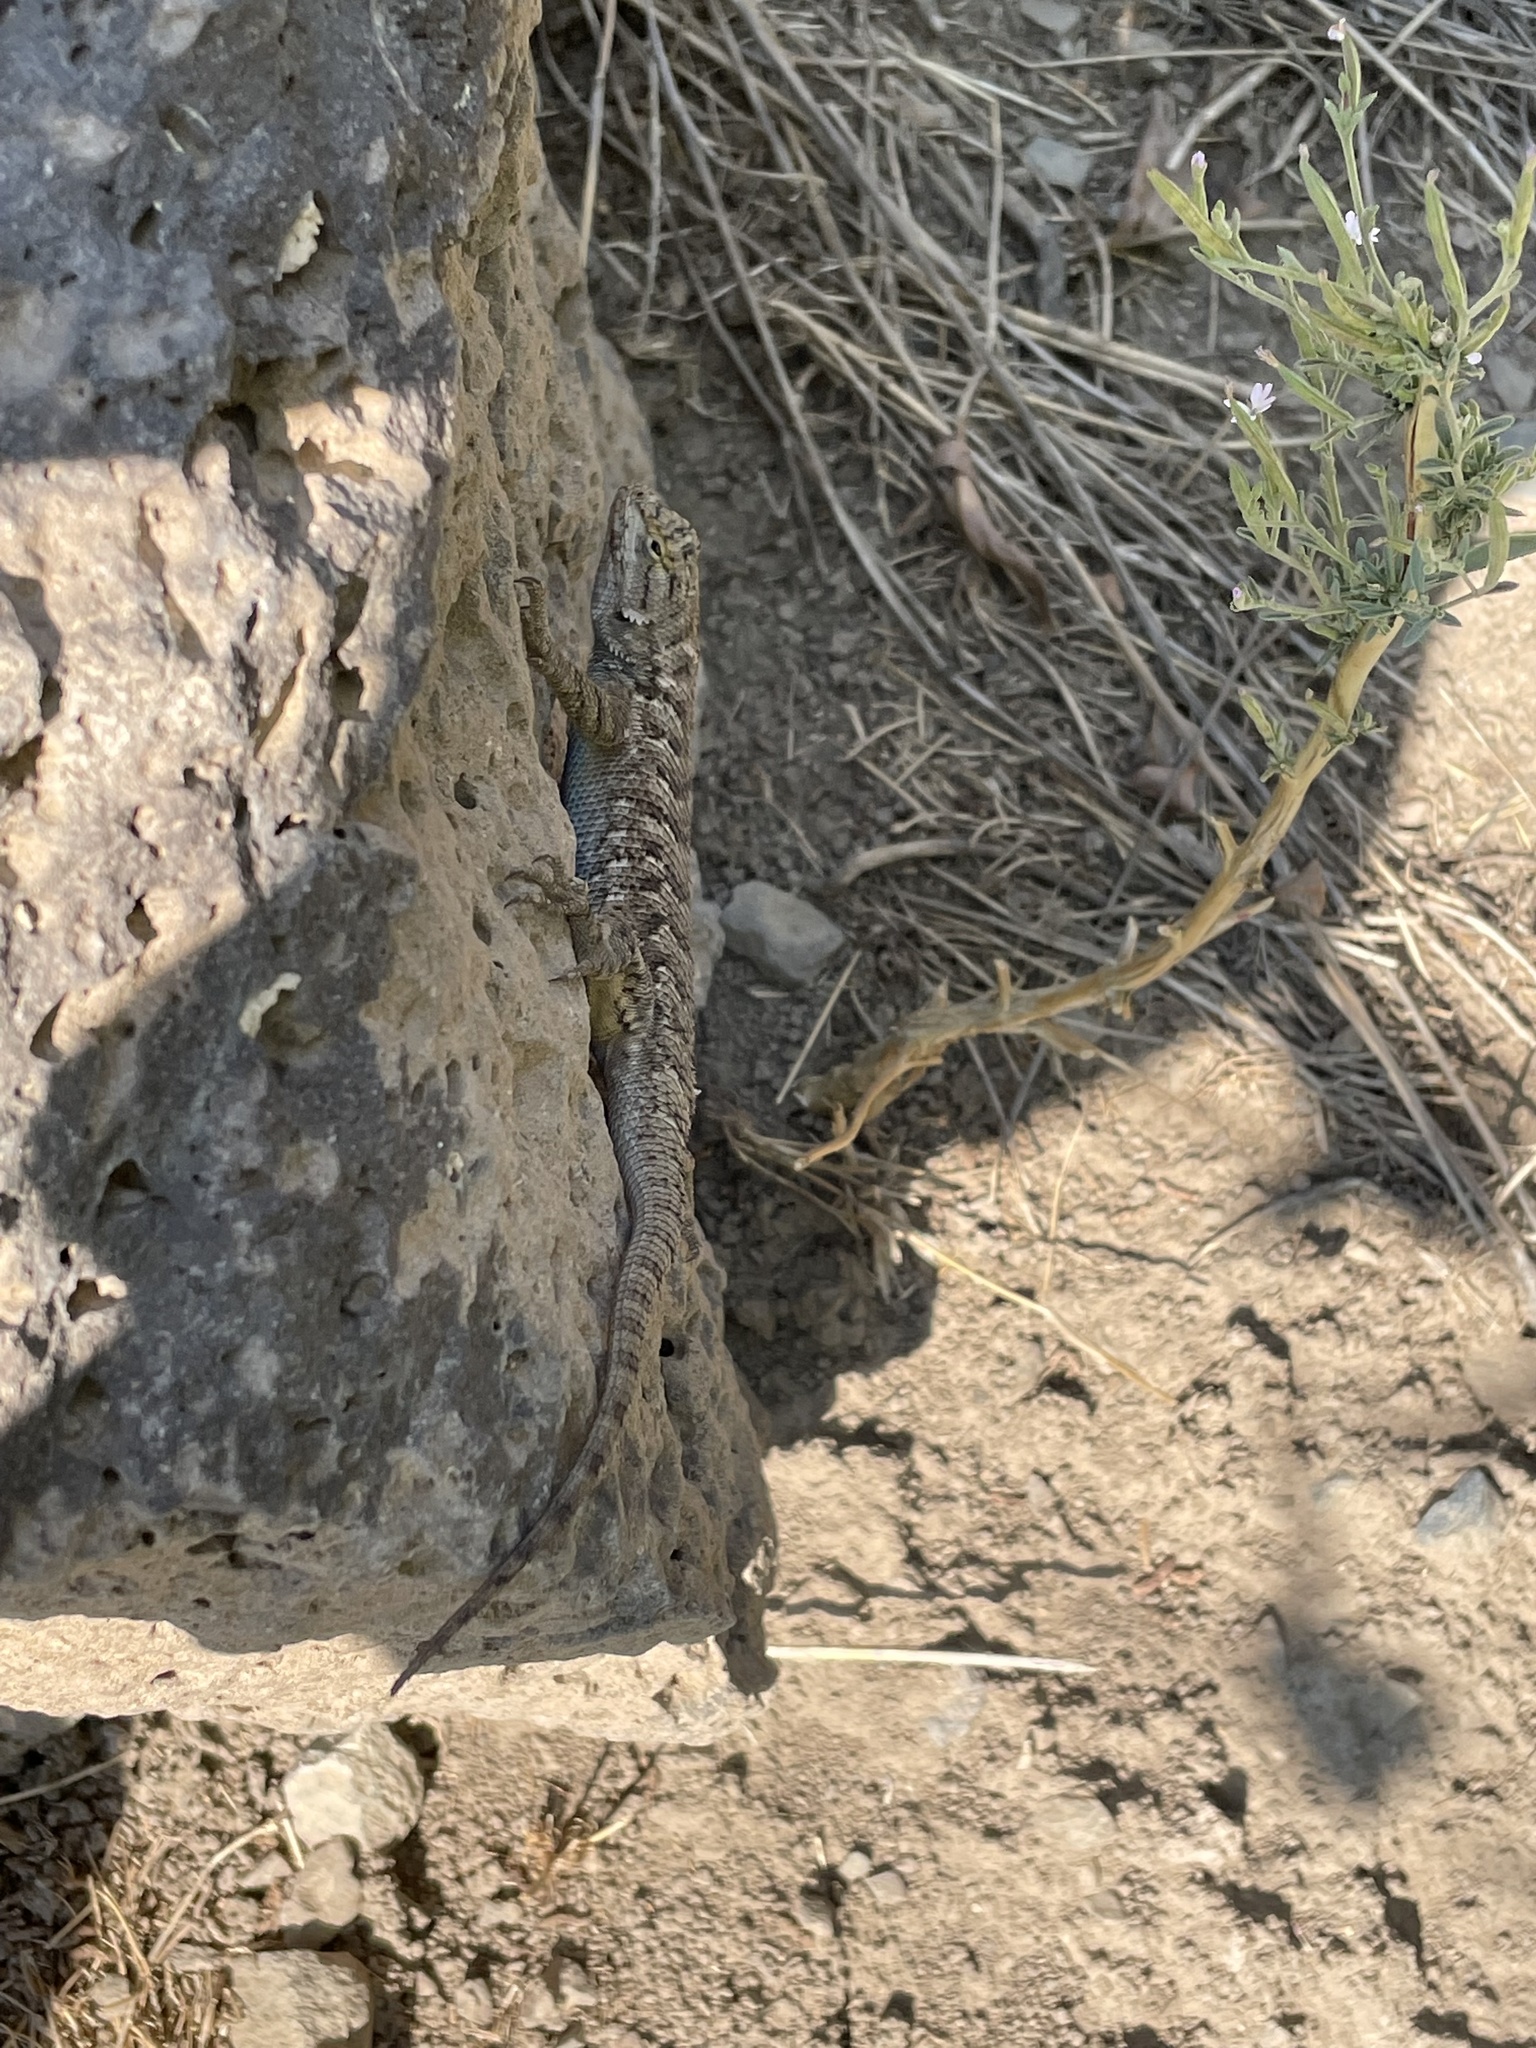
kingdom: Animalia
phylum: Chordata
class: Squamata
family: Phrynosomatidae
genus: Sceloporus
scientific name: Sceloporus occidentalis
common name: Western fence lizard
